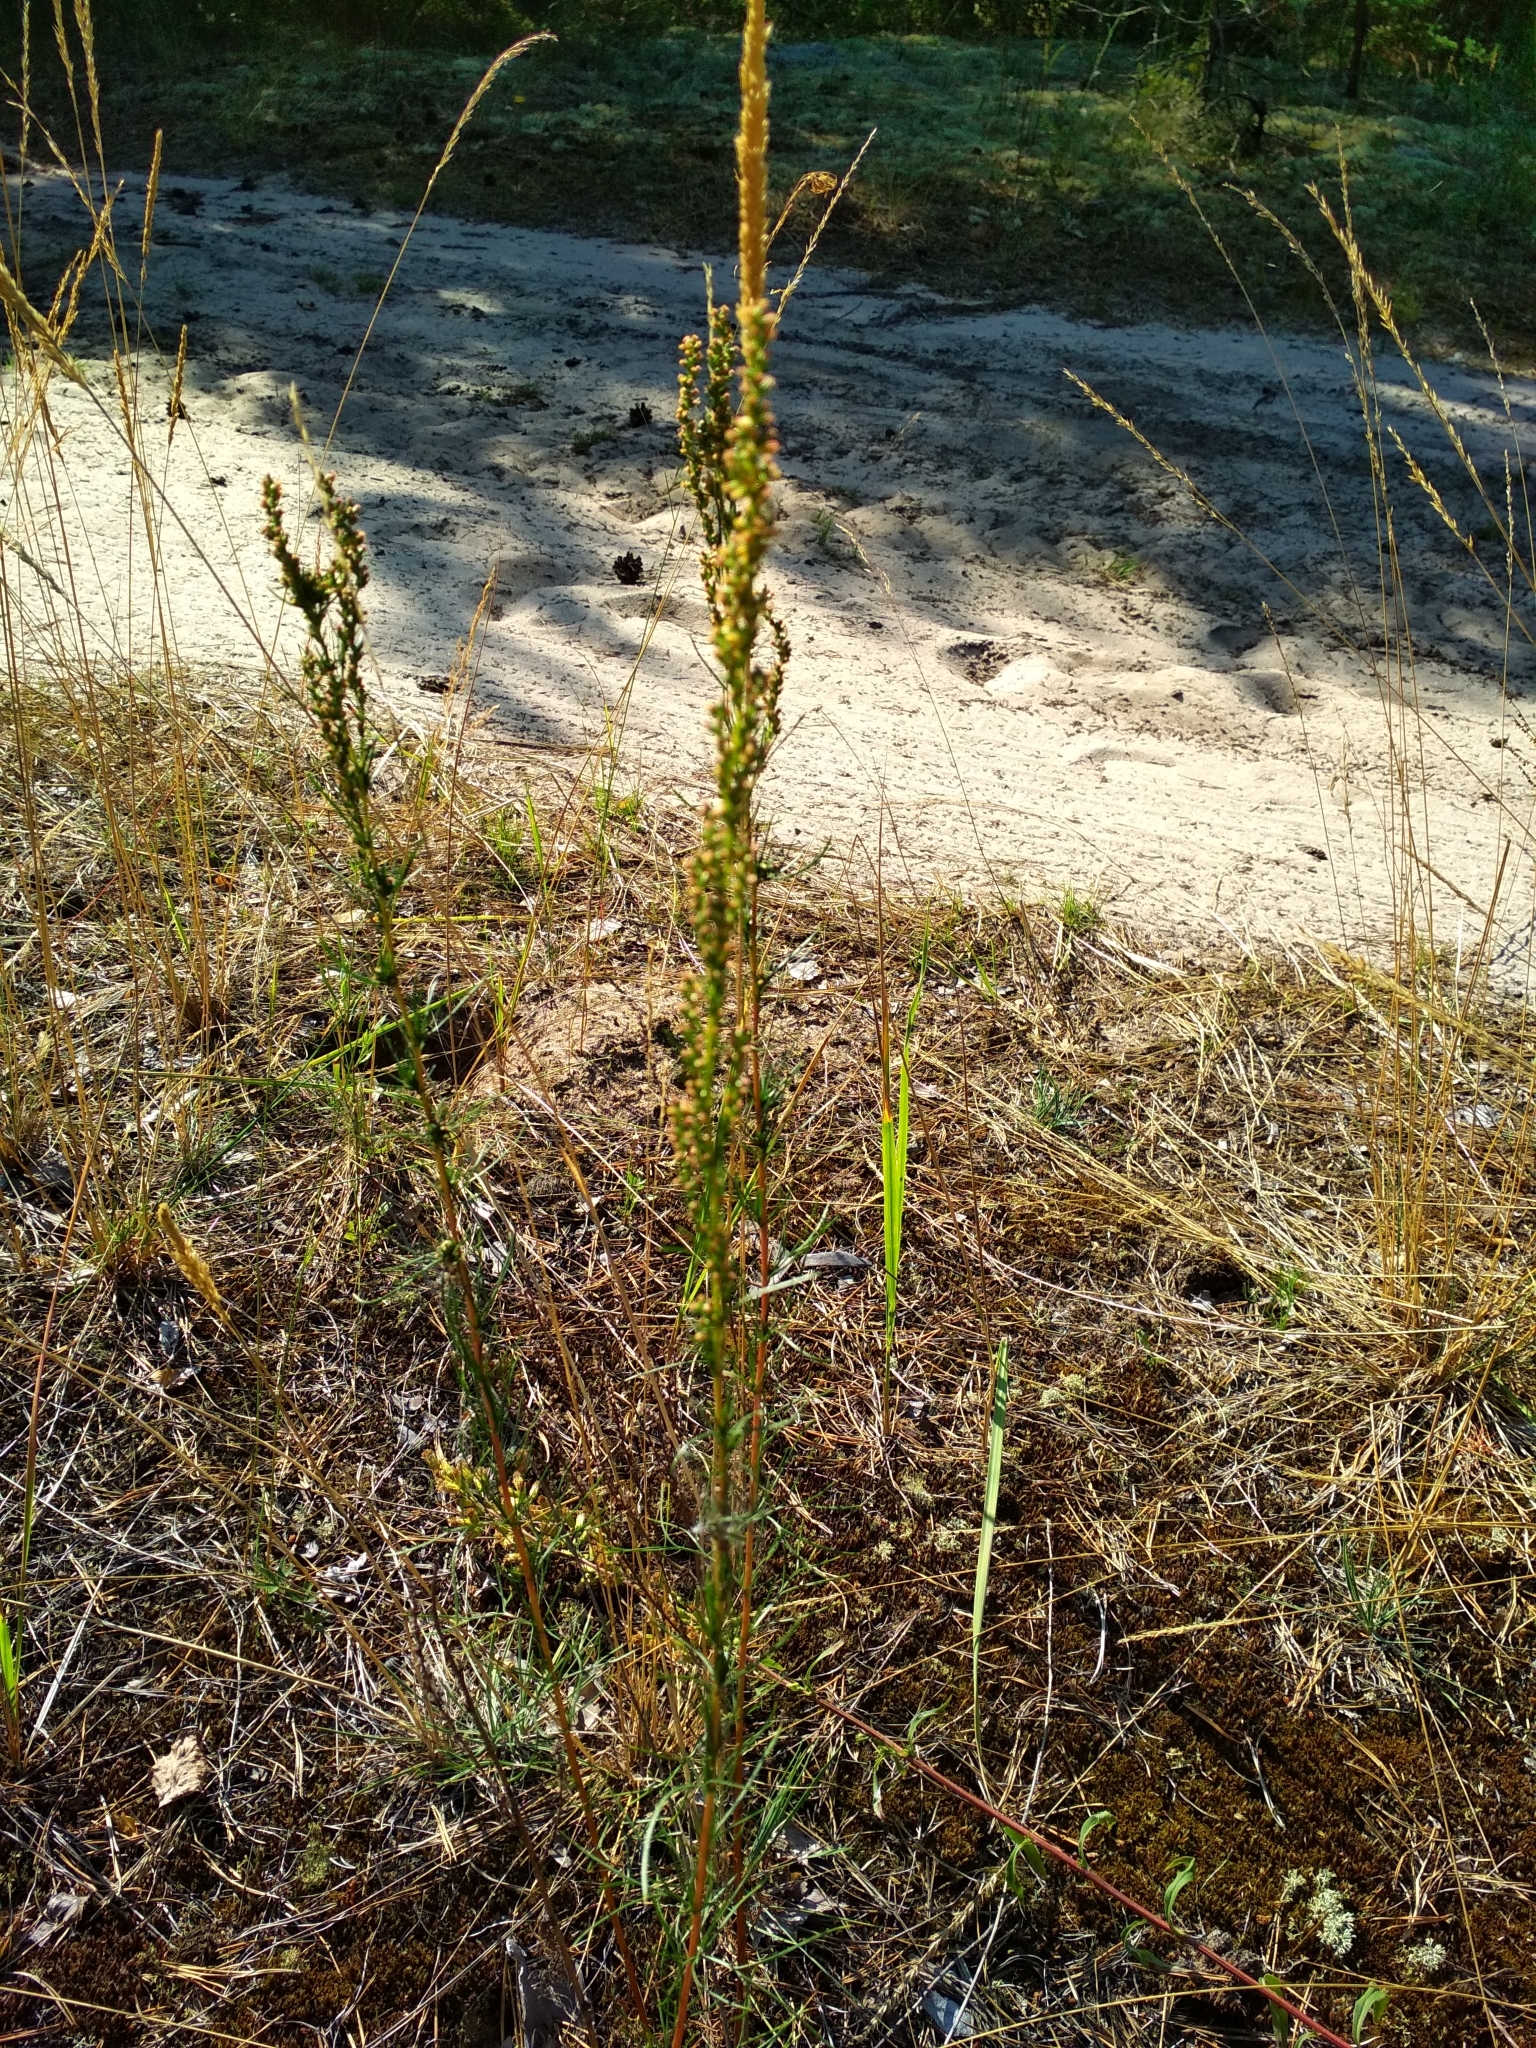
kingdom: Plantae
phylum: Tracheophyta
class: Magnoliopsida
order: Asterales
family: Asteraceae
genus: Artemisia
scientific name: Artemisia campestris
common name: Field wormwood
